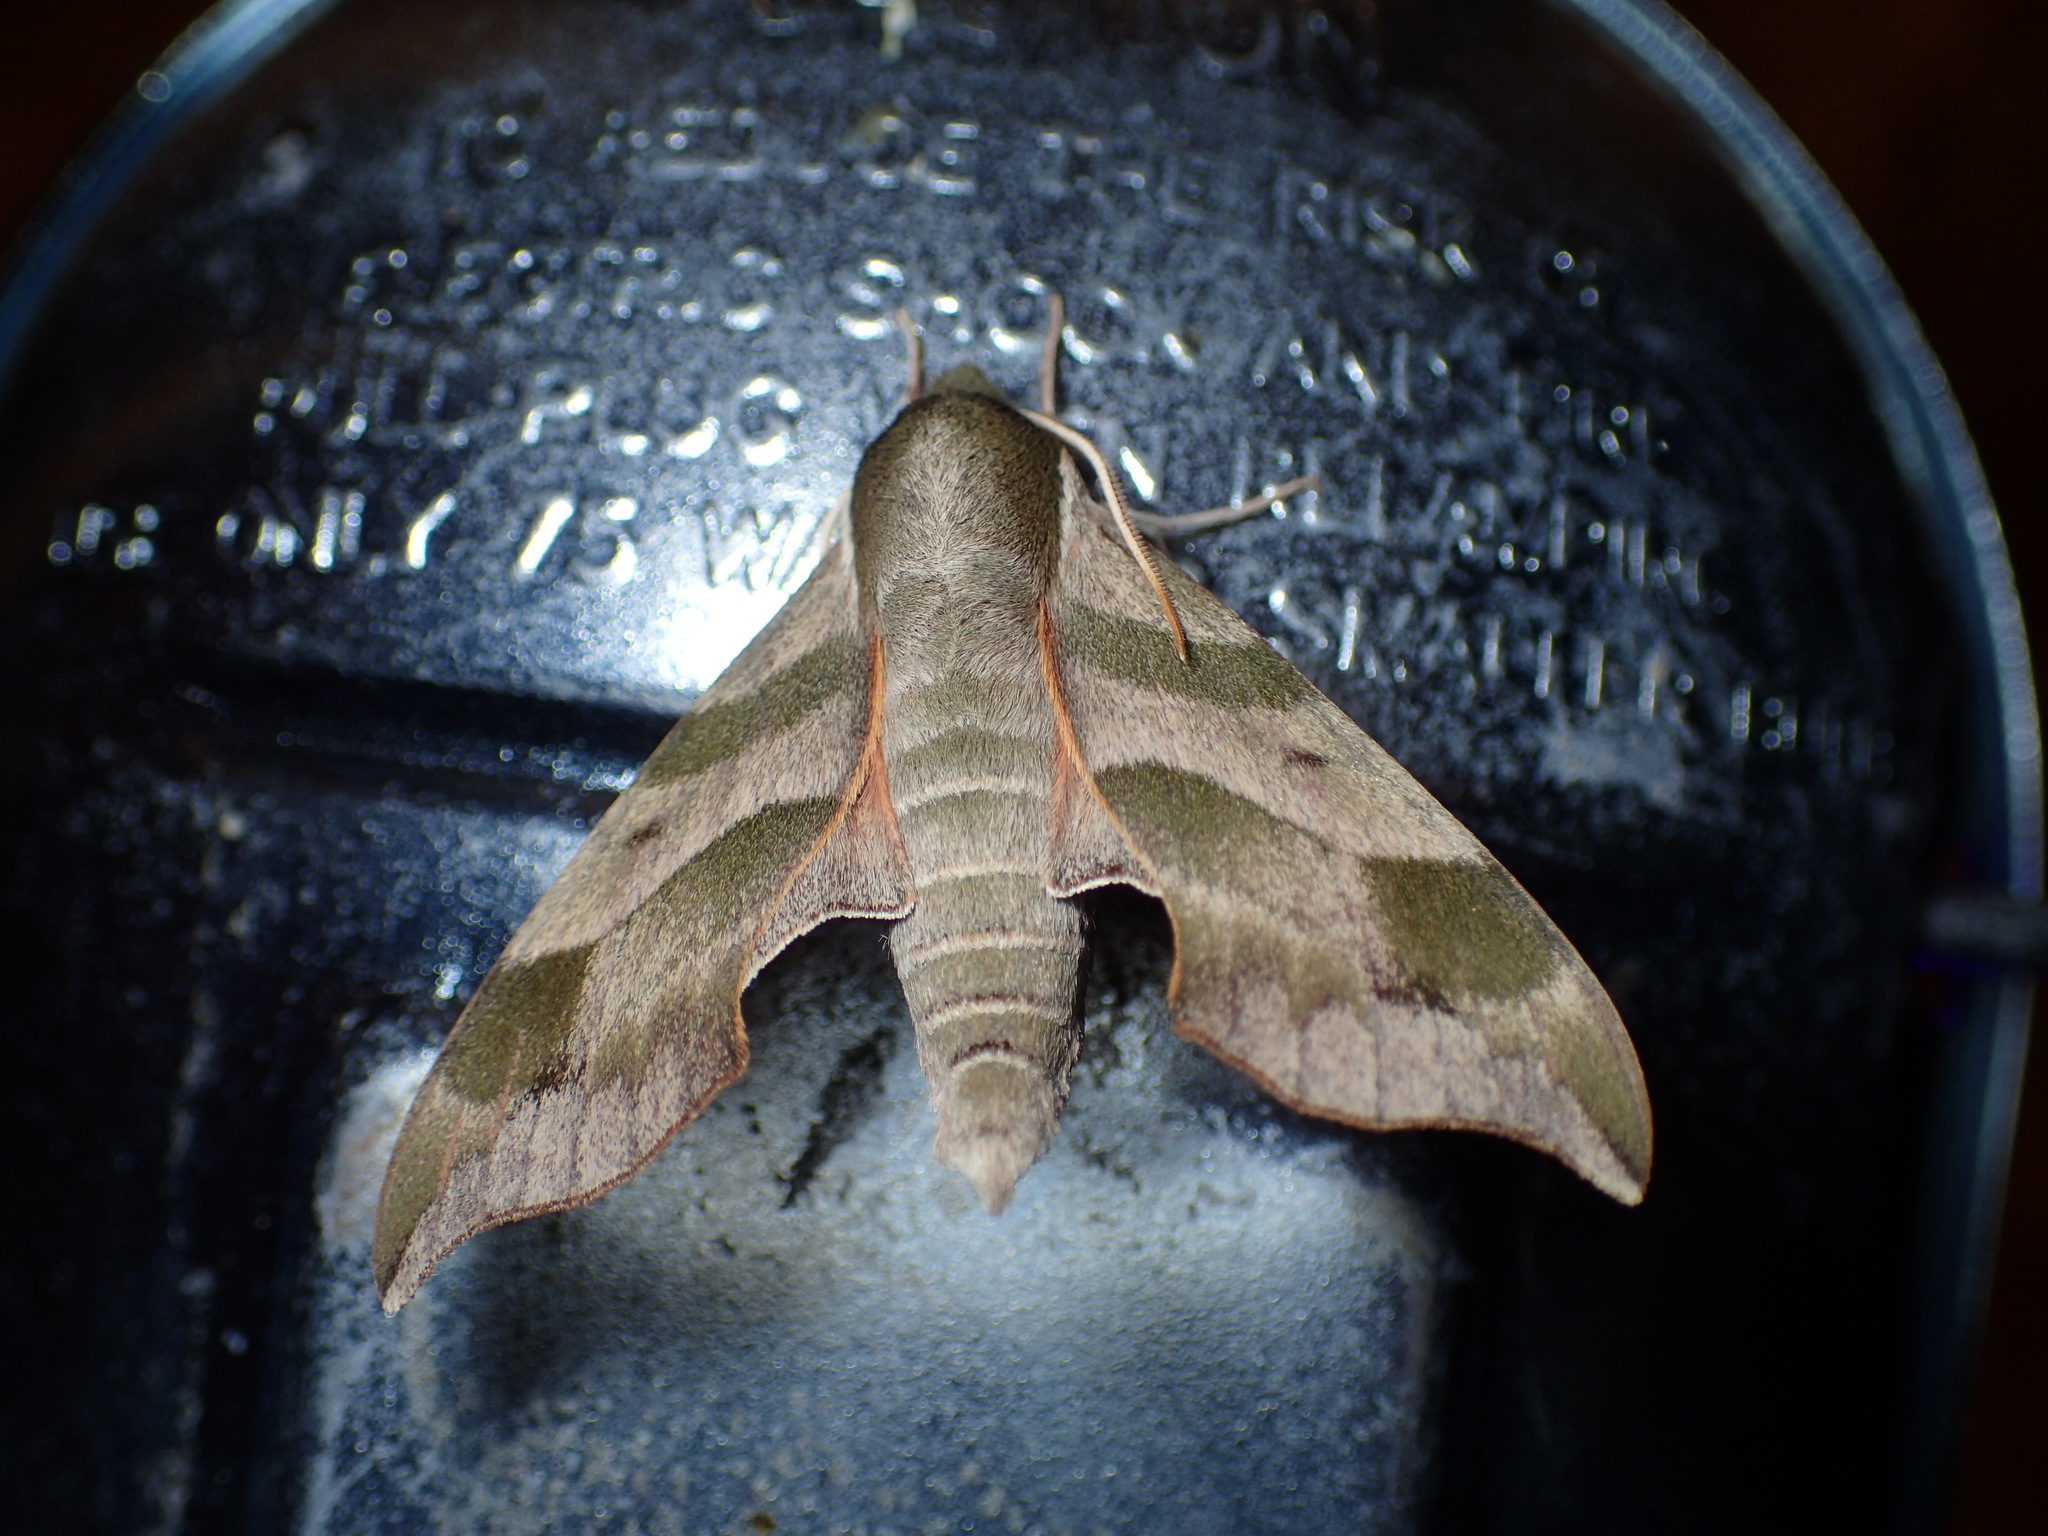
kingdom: Animalia
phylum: Arthropoda
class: Insecta
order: Lepidoptera
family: Sphingidae
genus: Darapsa
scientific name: Darapsa myron
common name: Hog sphinx
